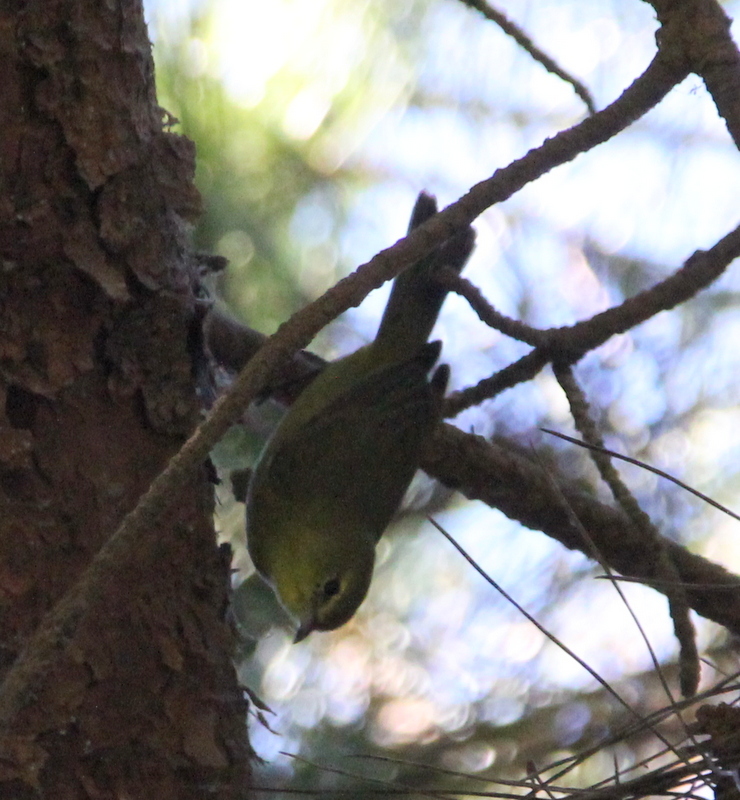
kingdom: Animalia
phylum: Chordata
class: Aves
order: Passeriformes
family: Parulidae
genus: Leiothlypis
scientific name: Leiothlypis celata
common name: Orange-crowned warbler
